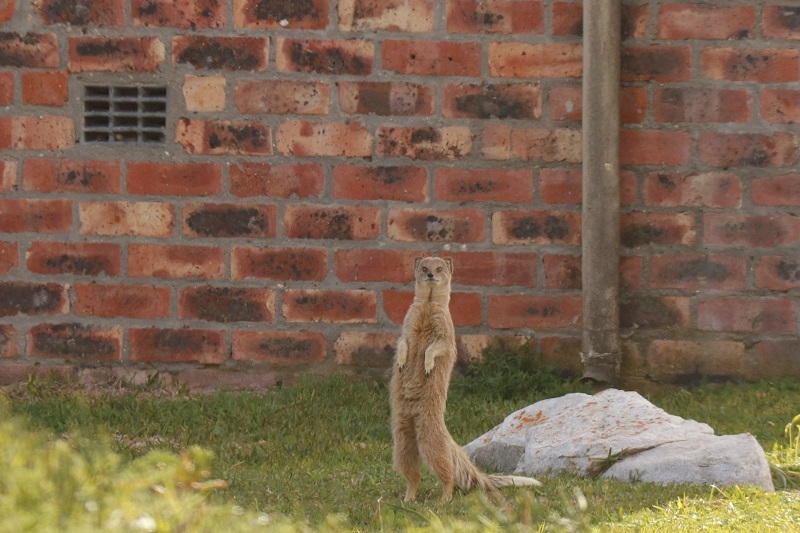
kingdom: Animalia
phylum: Chordata
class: Mammalia
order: Carnivora
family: Herpestidae
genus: Cynictis
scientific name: Cynictis penicillata
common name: Yellow mongoose
